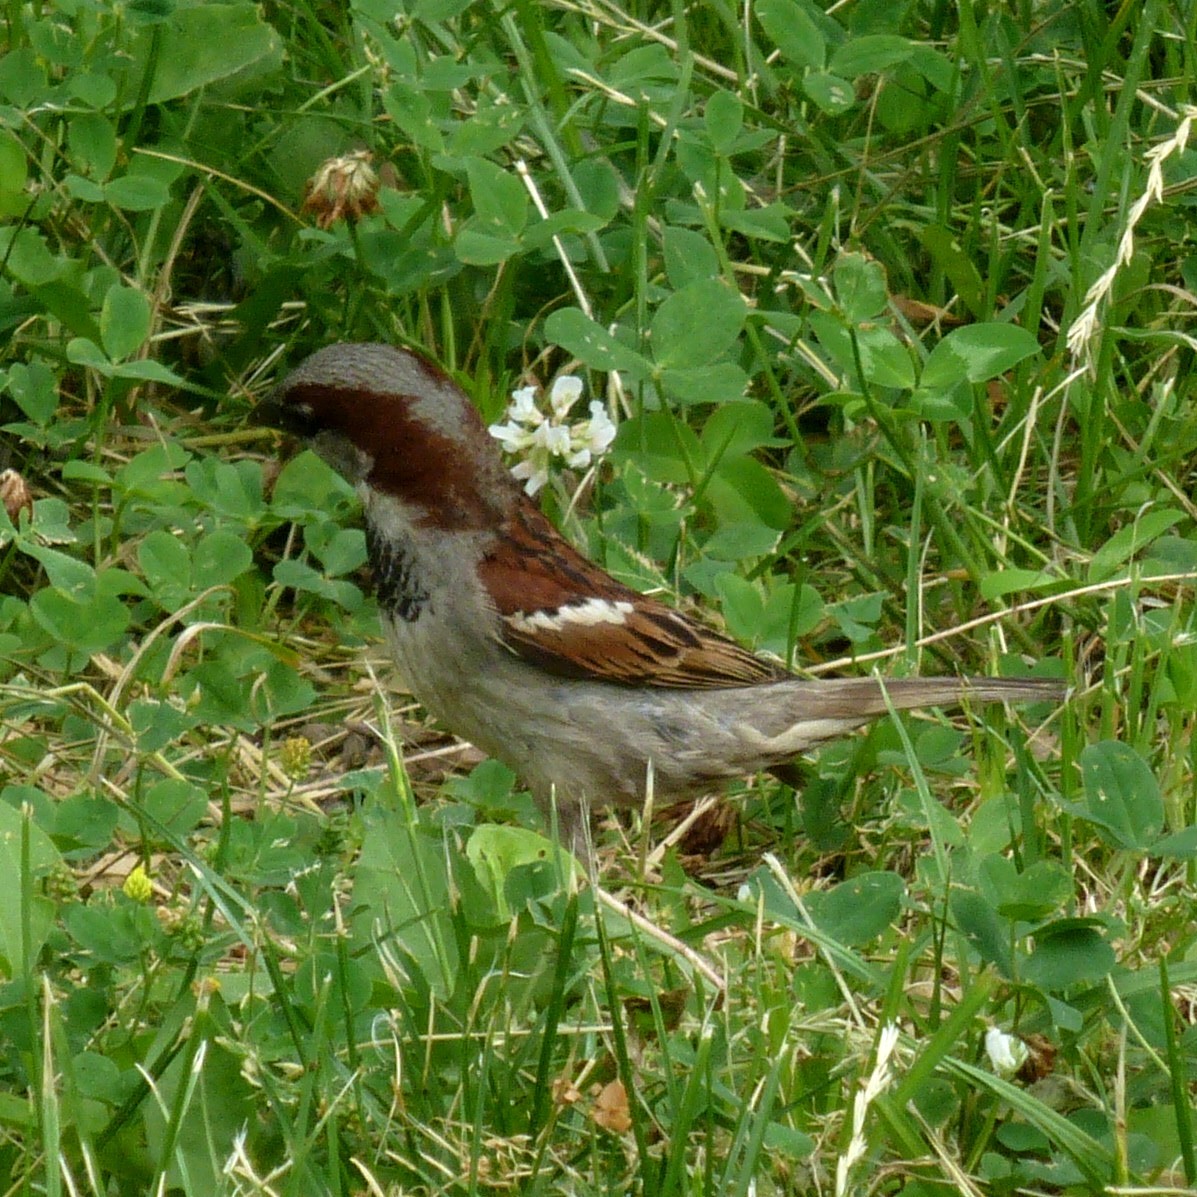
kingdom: Animalia
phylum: Chordata
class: Aves
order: Passeriformes
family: Passeridae
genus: Passer
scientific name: Passer domesticus
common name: House sparrow
